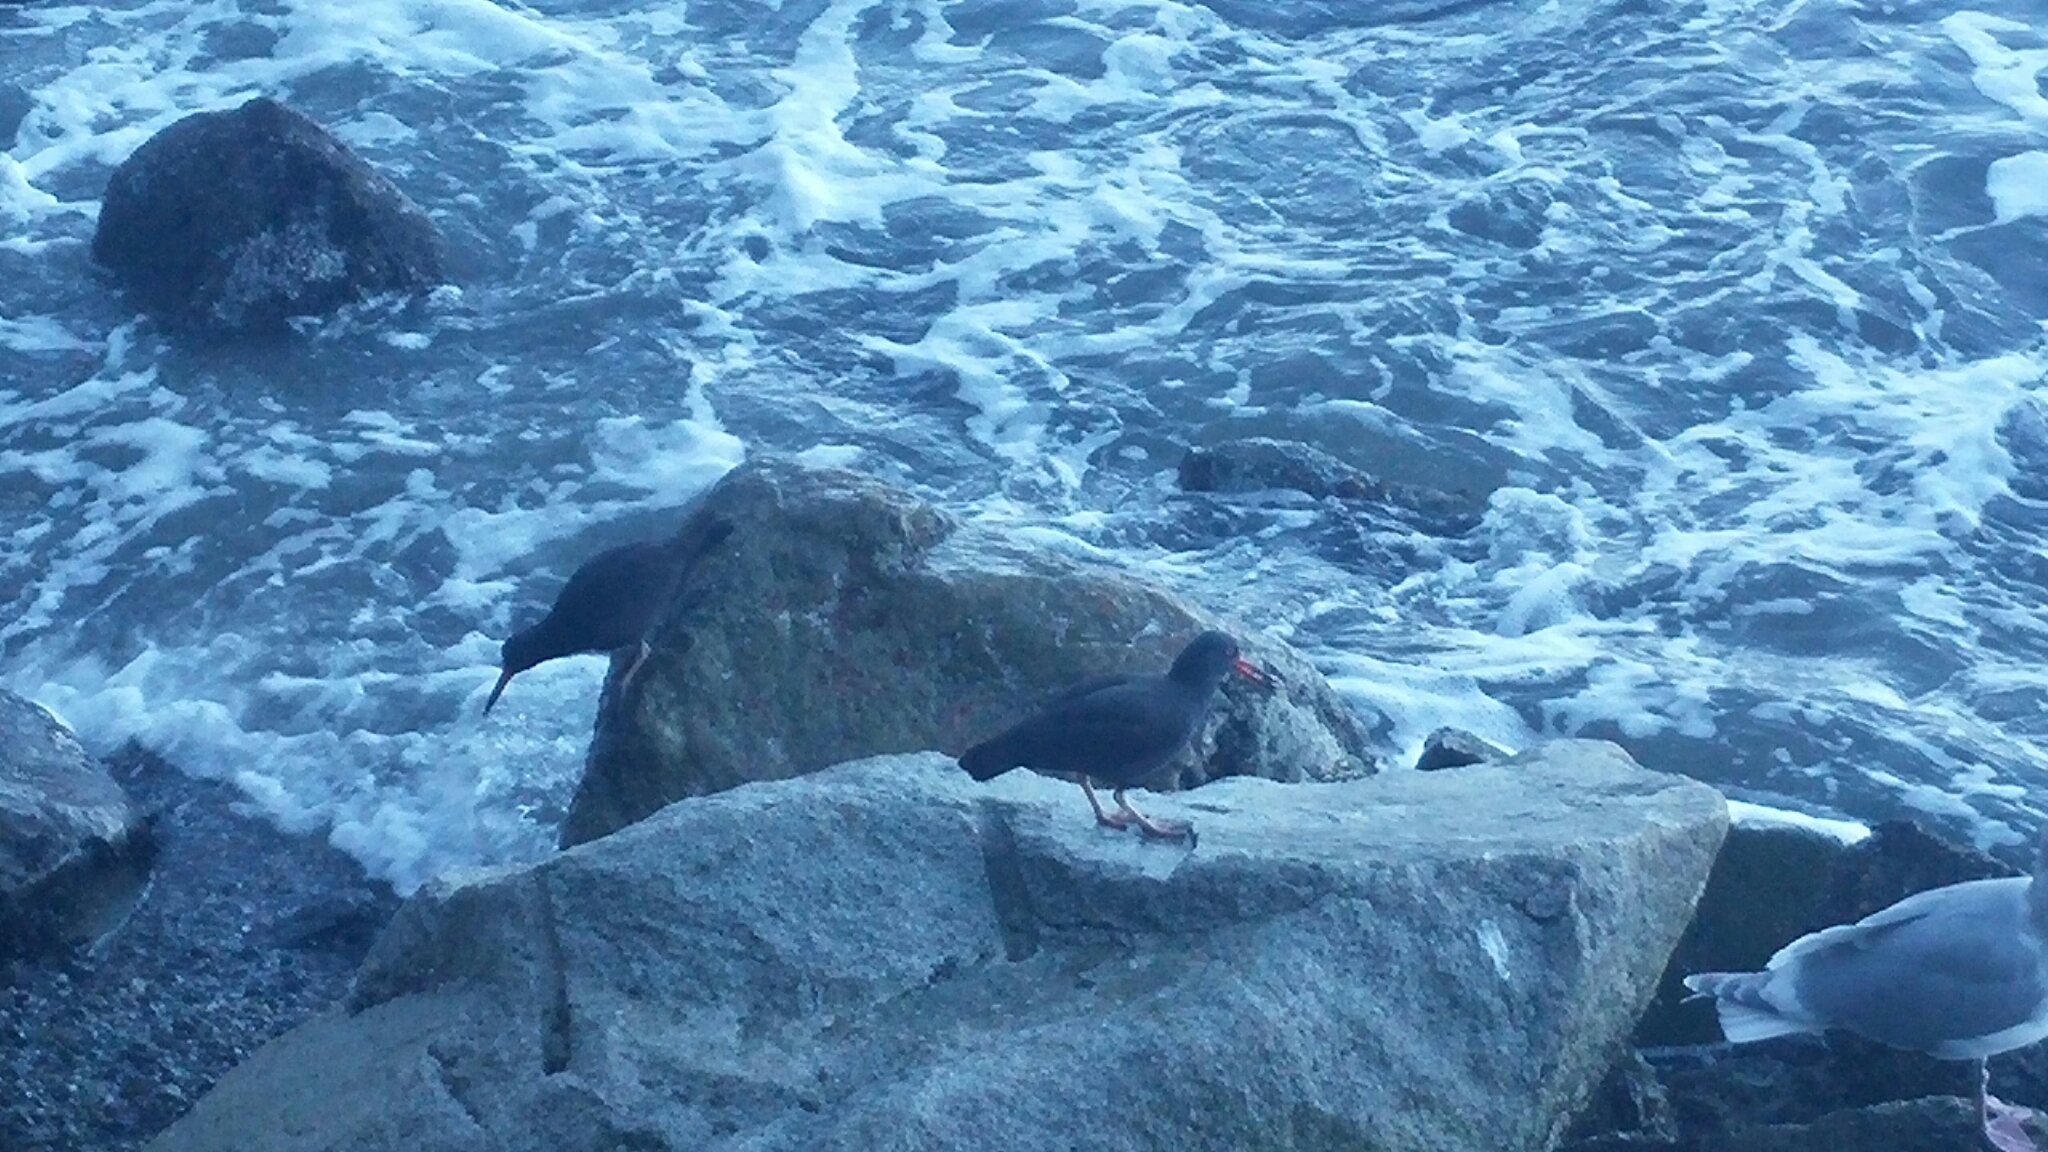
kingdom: Animalia
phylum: Chordata
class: Aves
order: Charadriiformes
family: Haematopodidae
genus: Haematopus
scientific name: Haematopus bachmani
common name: Black oystercatcher
